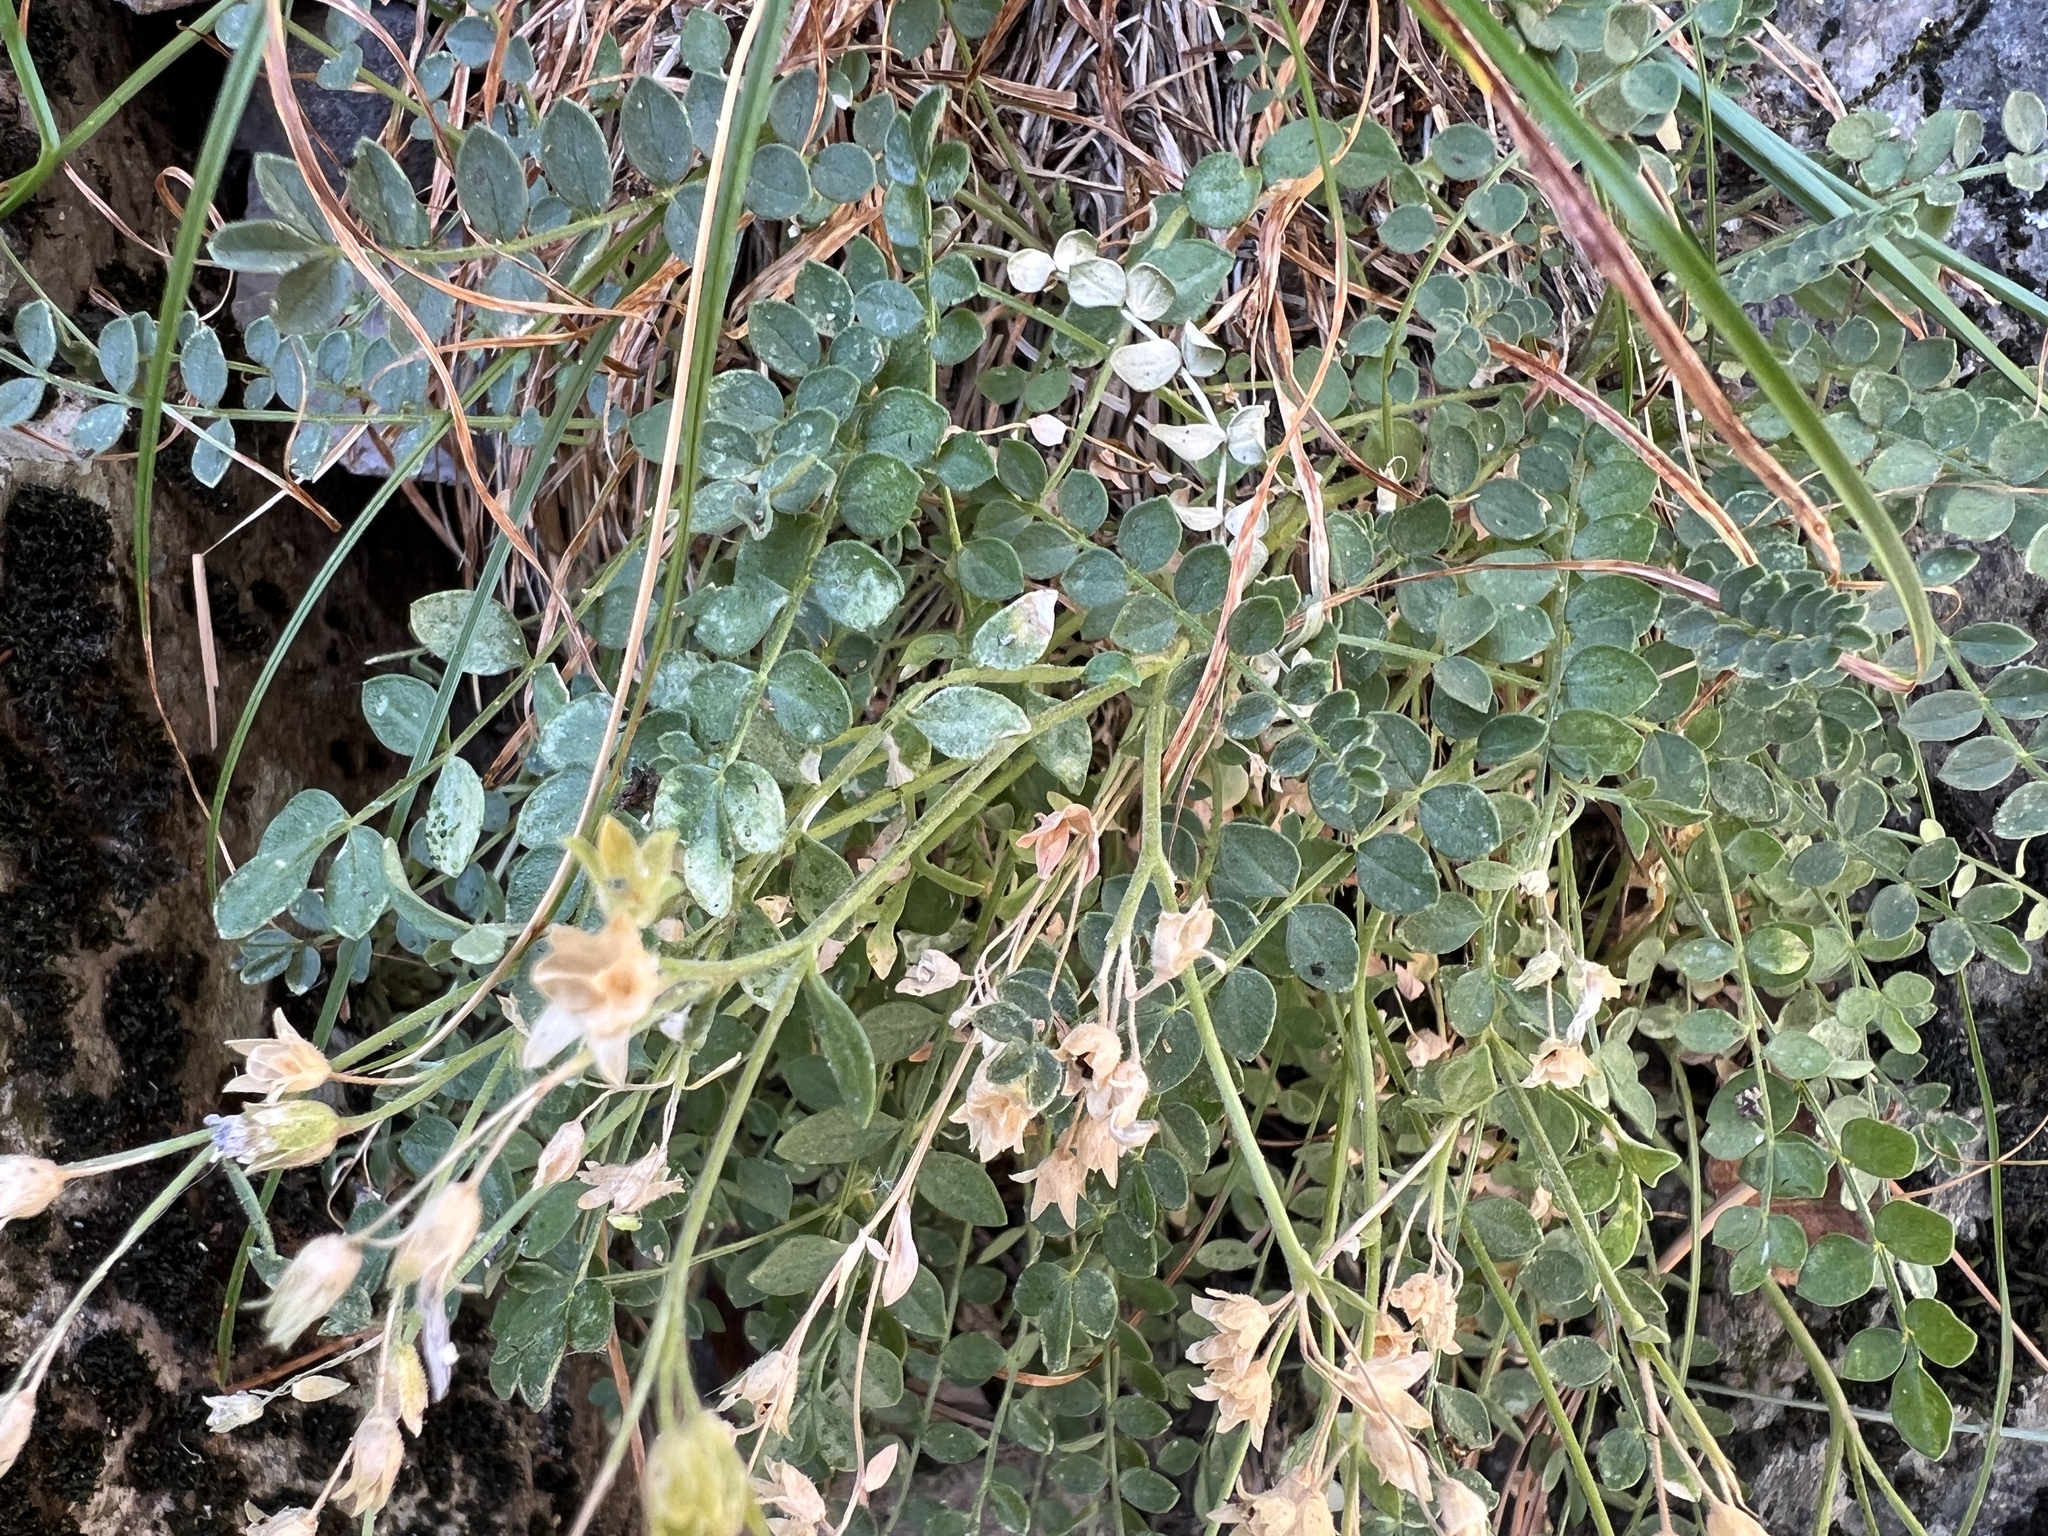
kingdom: Plantae
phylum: Tracheophyta
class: Magnoliopsida
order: Ericales
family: Polemoniaceae
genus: Polemonium
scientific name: Polemonium pulcherrimum
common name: Short jacob's-ladder
